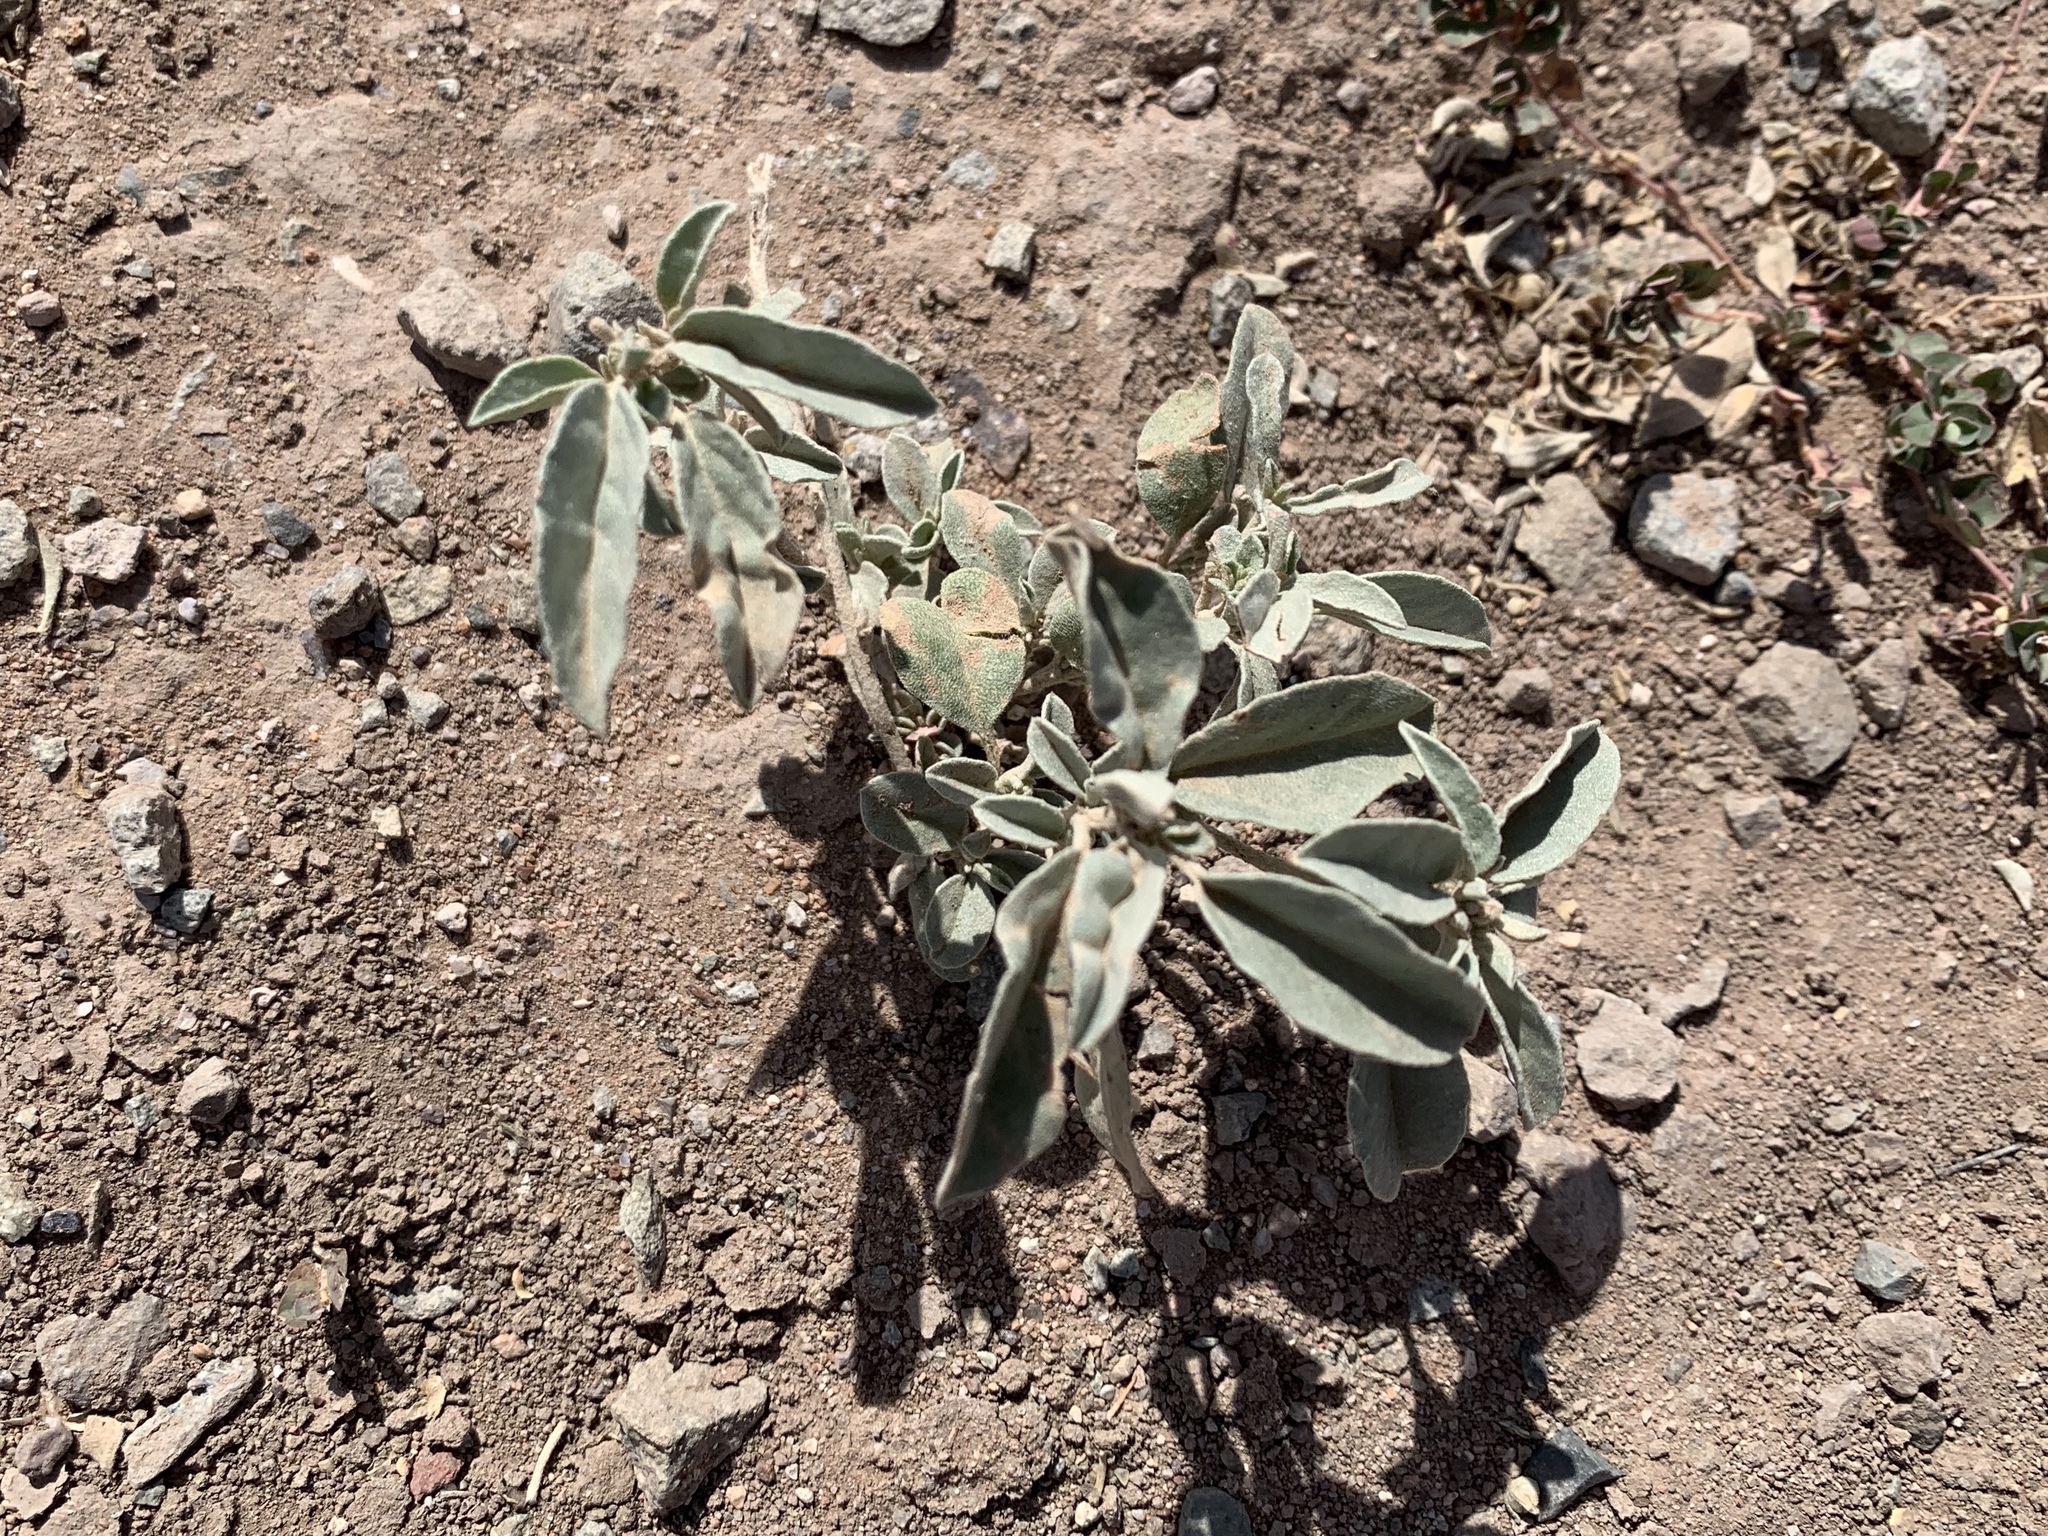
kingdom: Plantae
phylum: Tracheophyta
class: Magnoliopsida
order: Malpighiales
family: Euphorbiaceae
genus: Croton
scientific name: Croton pottsii
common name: Leatherweed
